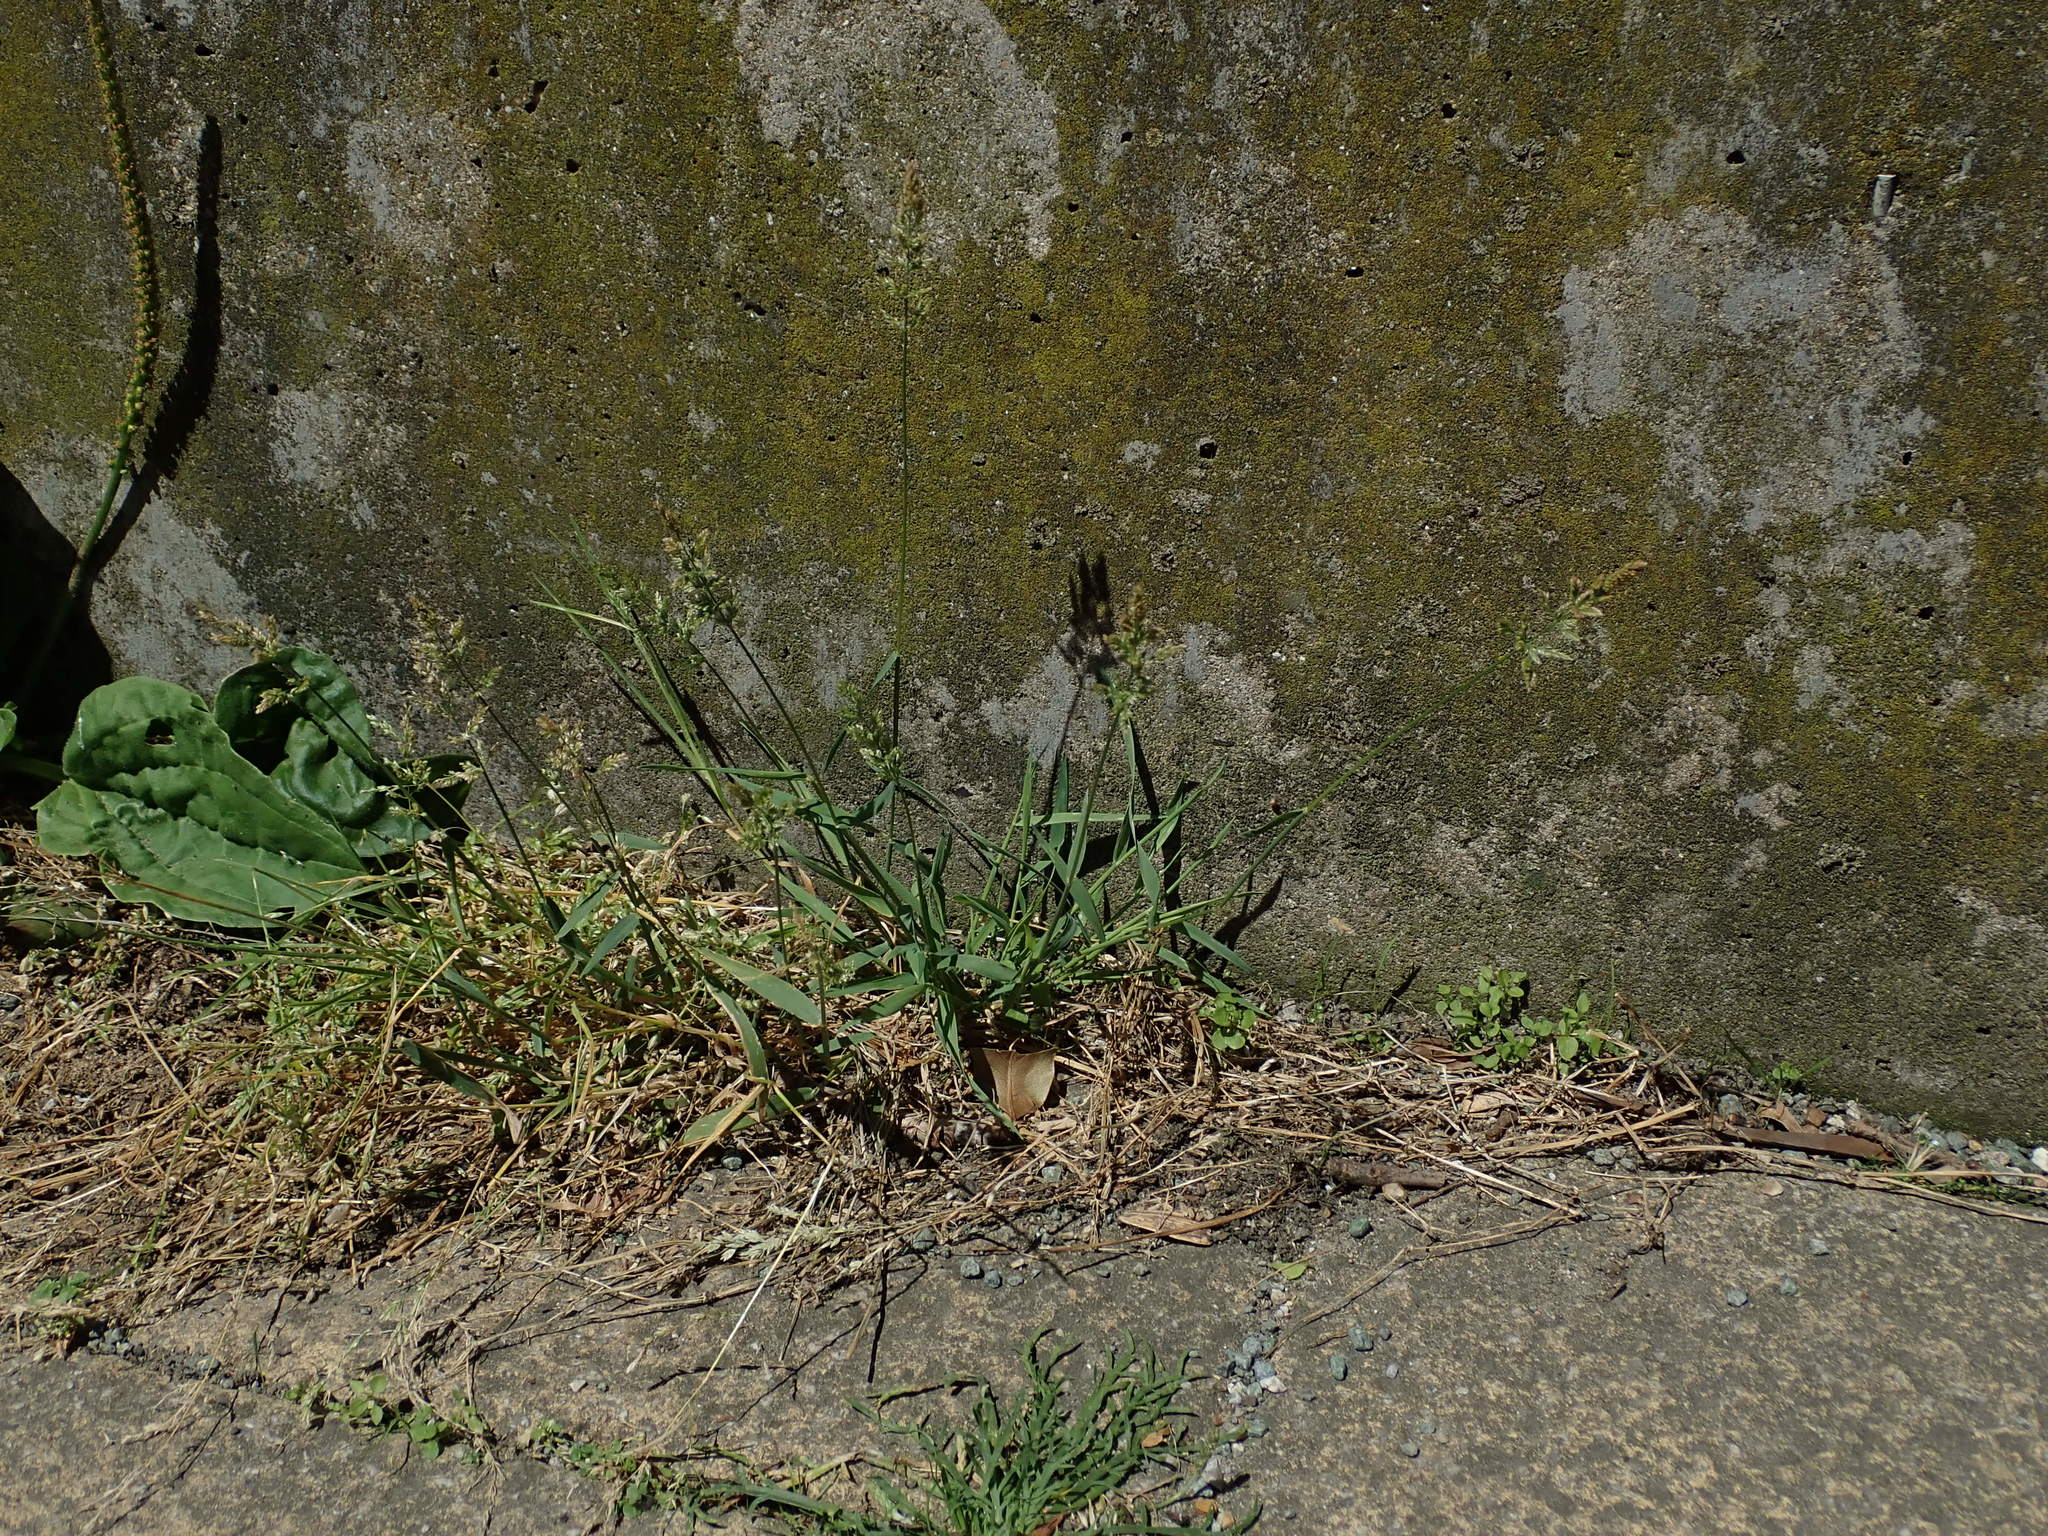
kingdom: Plantae
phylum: Tracheophyta
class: Liliopsida
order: Poales
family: Poaceae
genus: Polypogon
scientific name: Polypogon viridis
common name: Water bent
